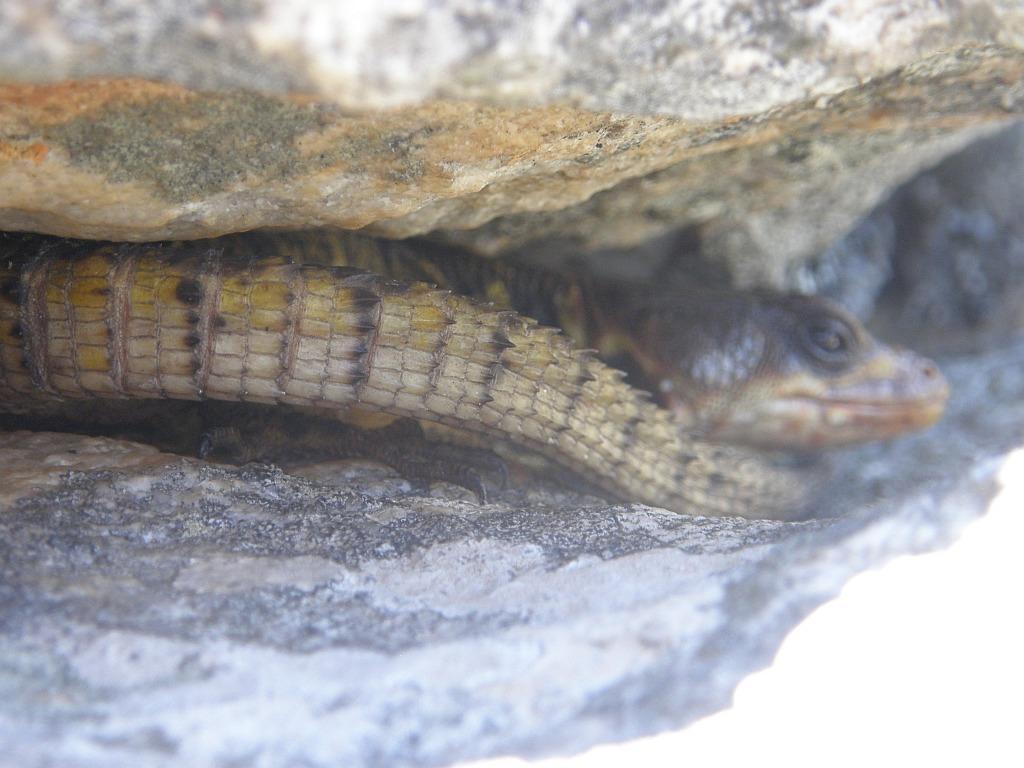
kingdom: Animalia
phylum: Chordata
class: Squamata
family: Cordylidae
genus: Pseudocordylus
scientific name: Pseudocordylus microlepidotus
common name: Cape crag lizard
